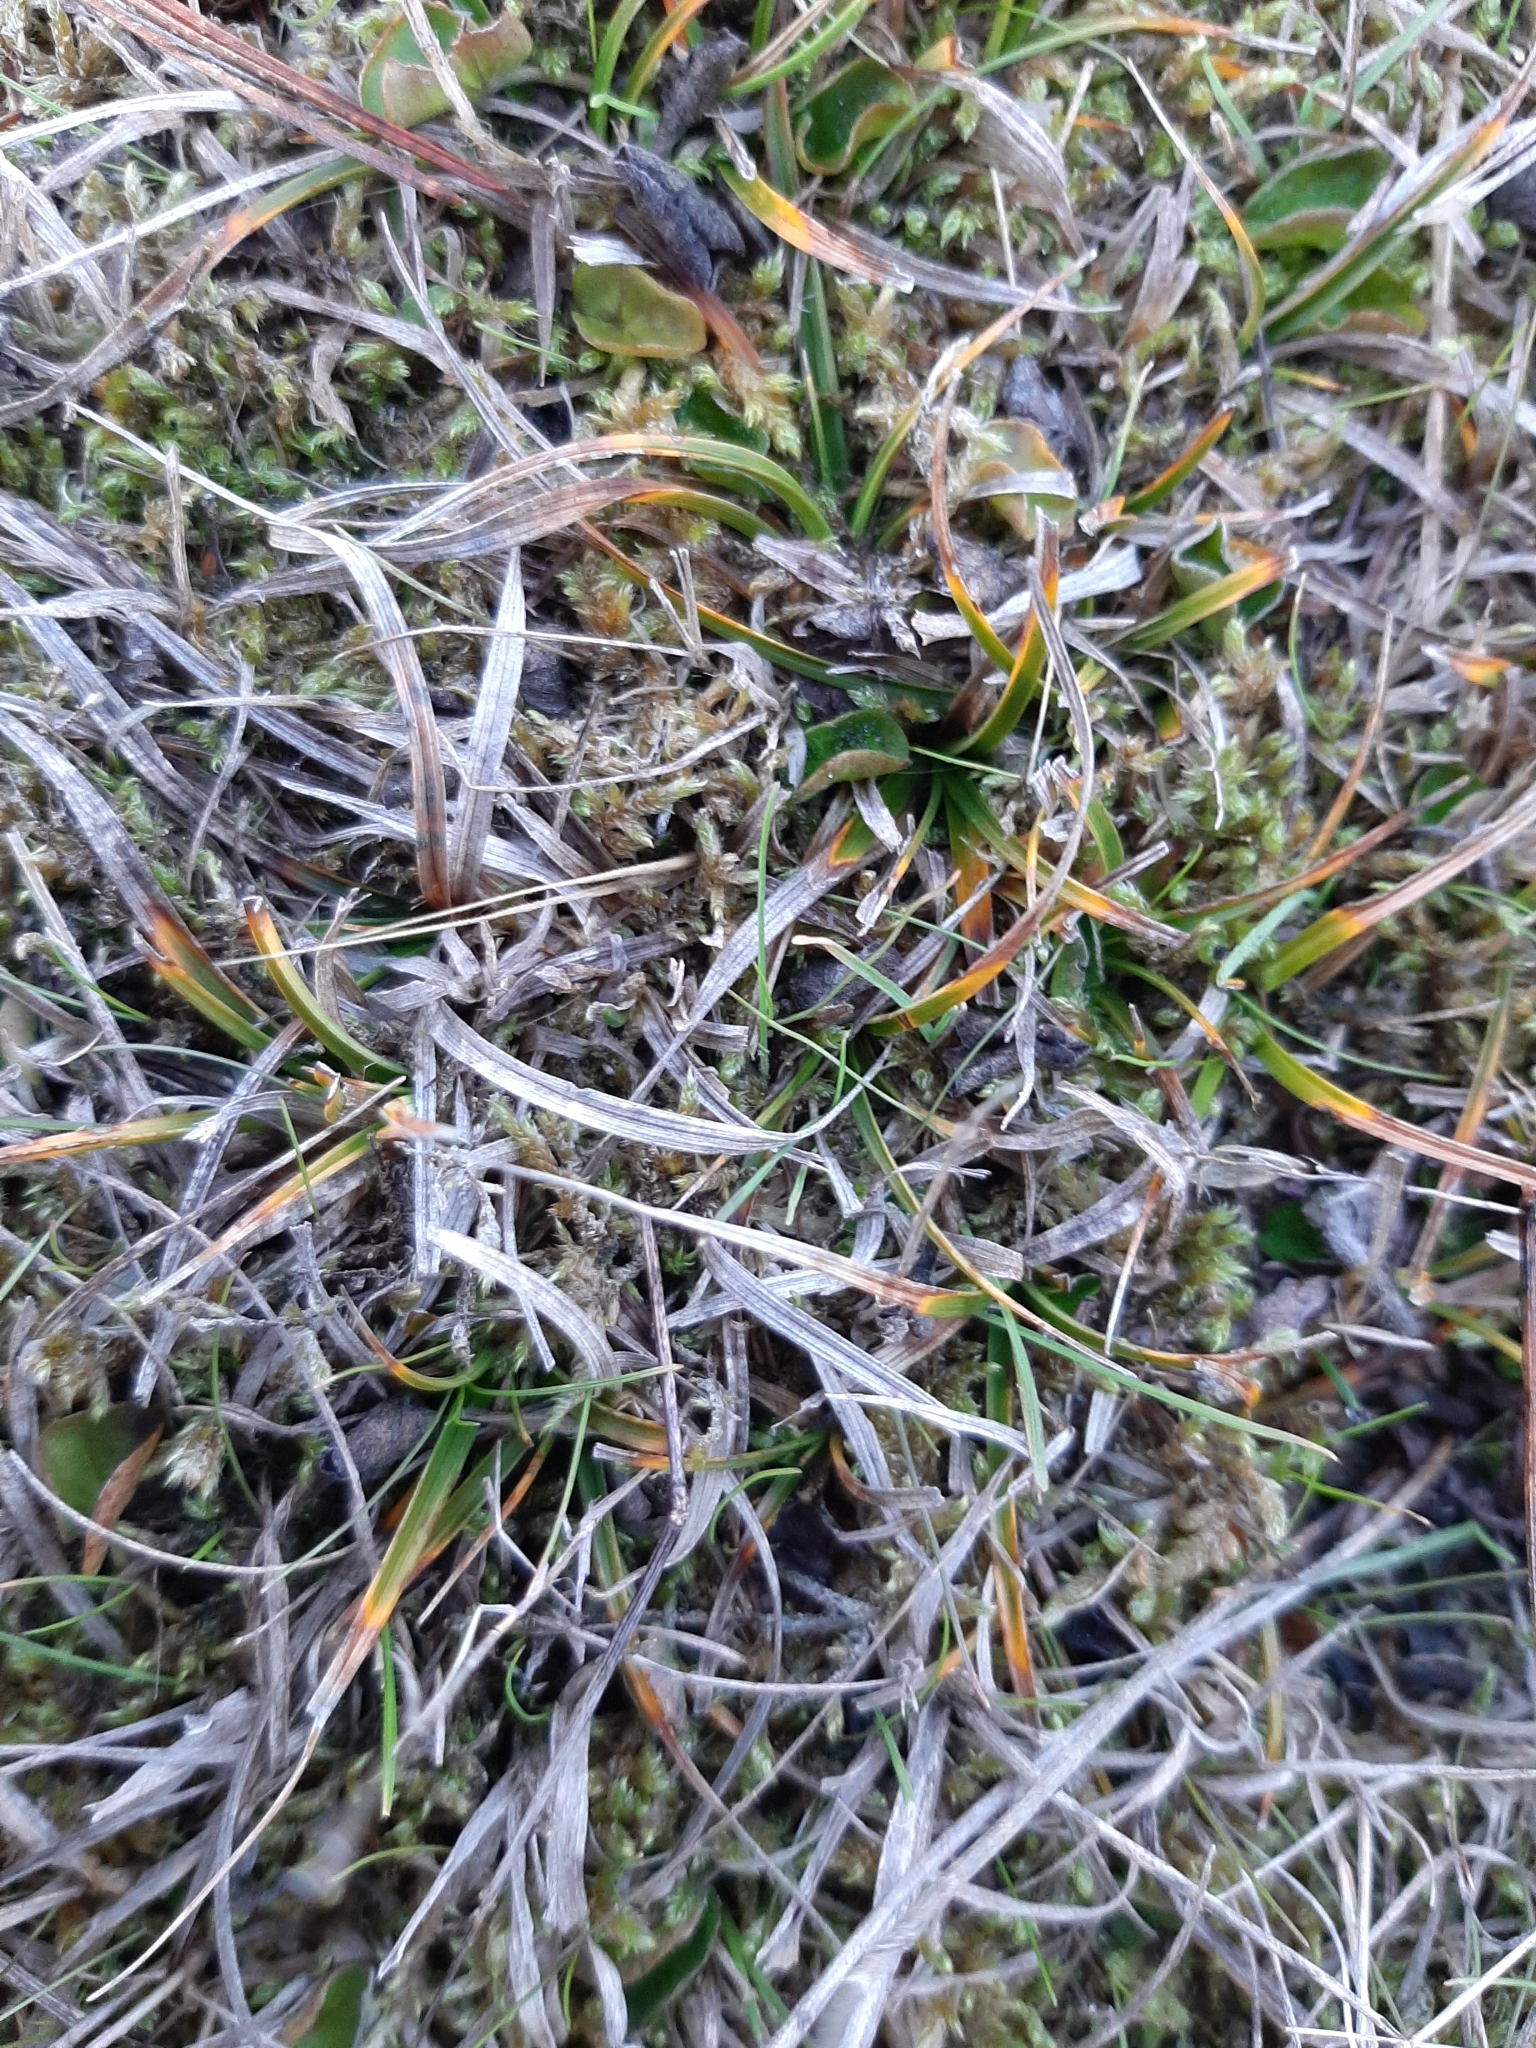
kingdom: Plantae
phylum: Tracheophyta
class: Liliopsida
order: Poales
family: Cyperaceae
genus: Carex
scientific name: Carex breviculmis
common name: Asian shortstem sedge
